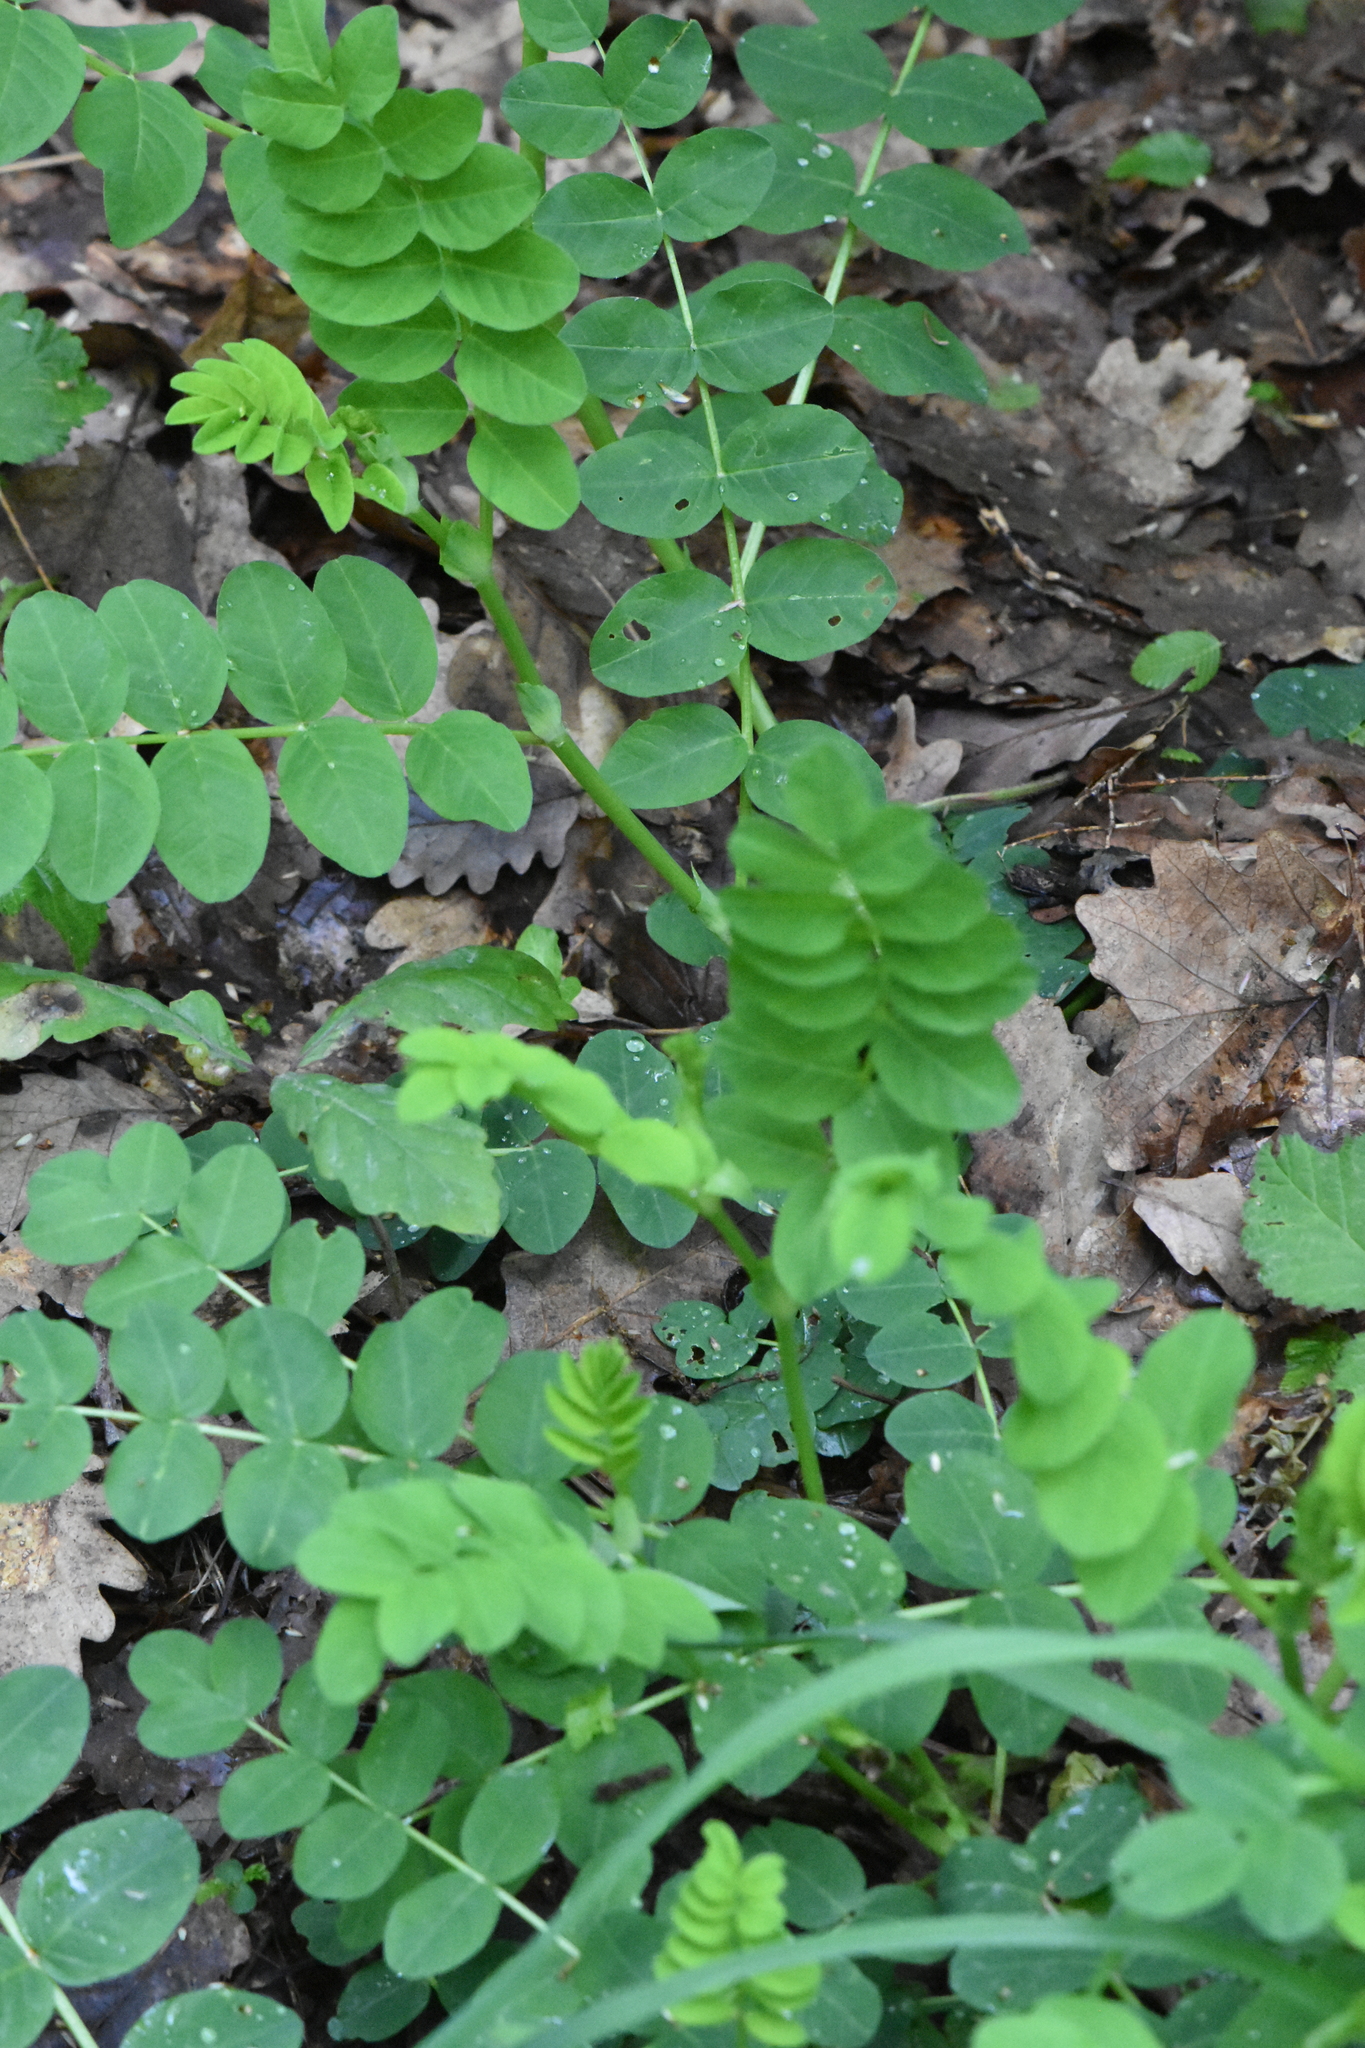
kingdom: Plantae
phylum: Tracheophyta
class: Magnoliopsida
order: Fabales
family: Fabaceae
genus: Astragalus
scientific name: Astragalus glycyphyllos
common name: Wild liquorice
